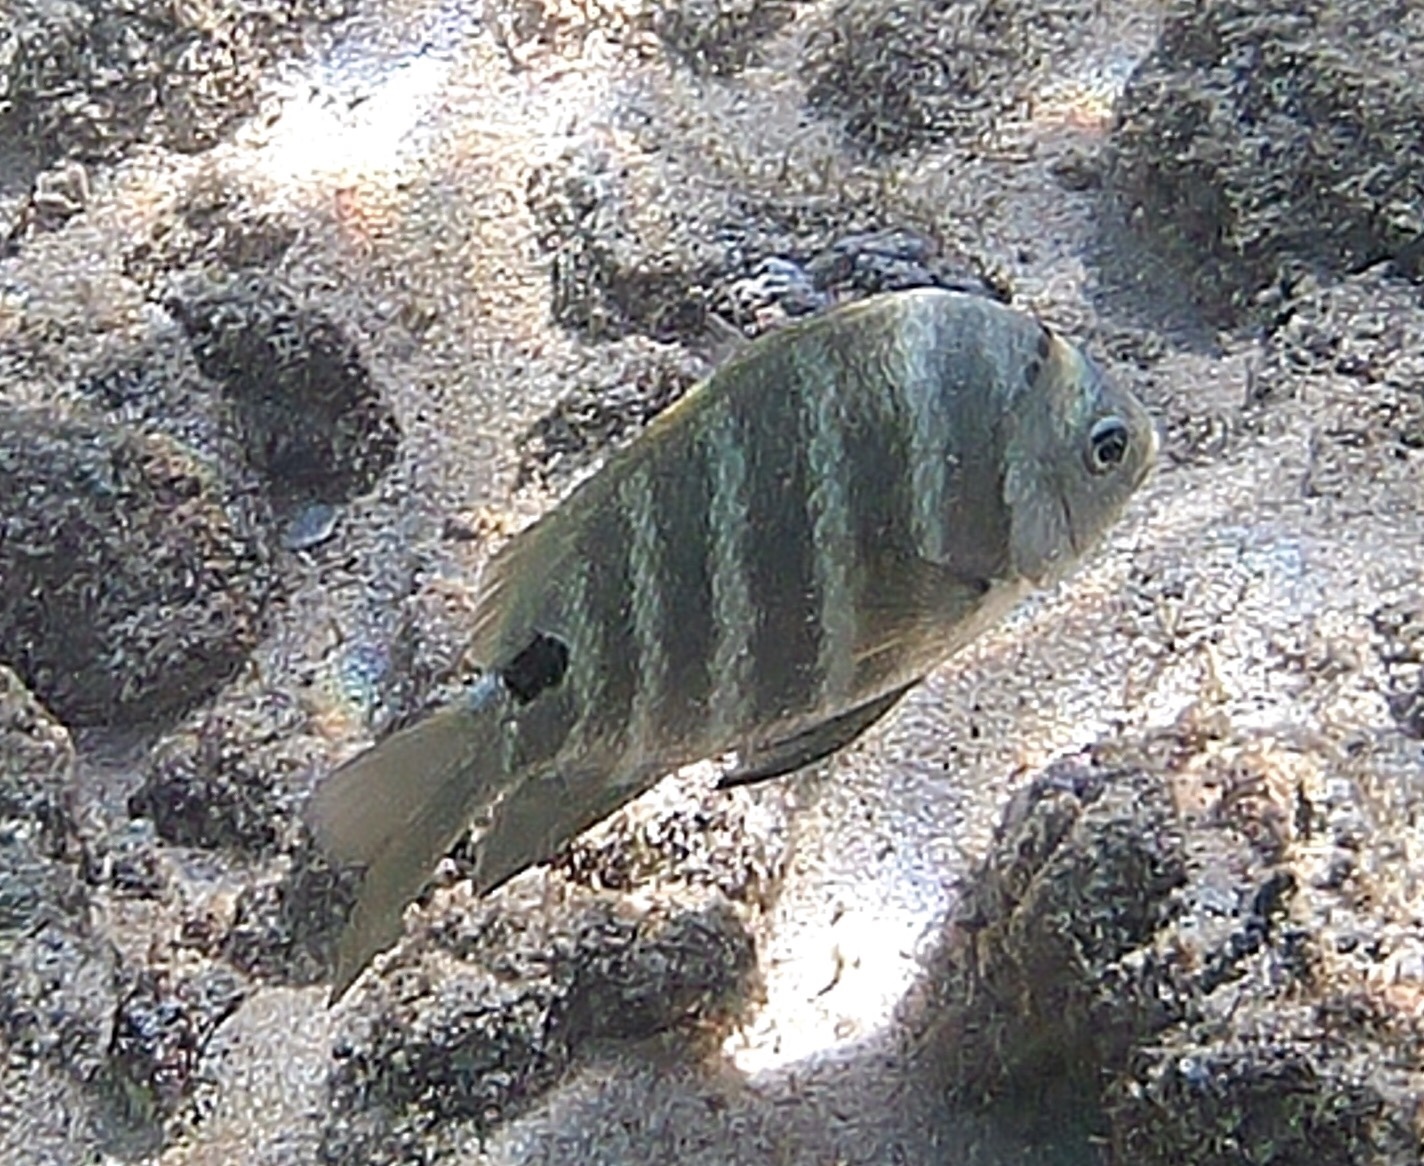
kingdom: Animalia
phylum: Chordata
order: Perciformes
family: Pomacentridae
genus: Abudefduf
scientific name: Abudefduf sordidus
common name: Blackspot sergeant
